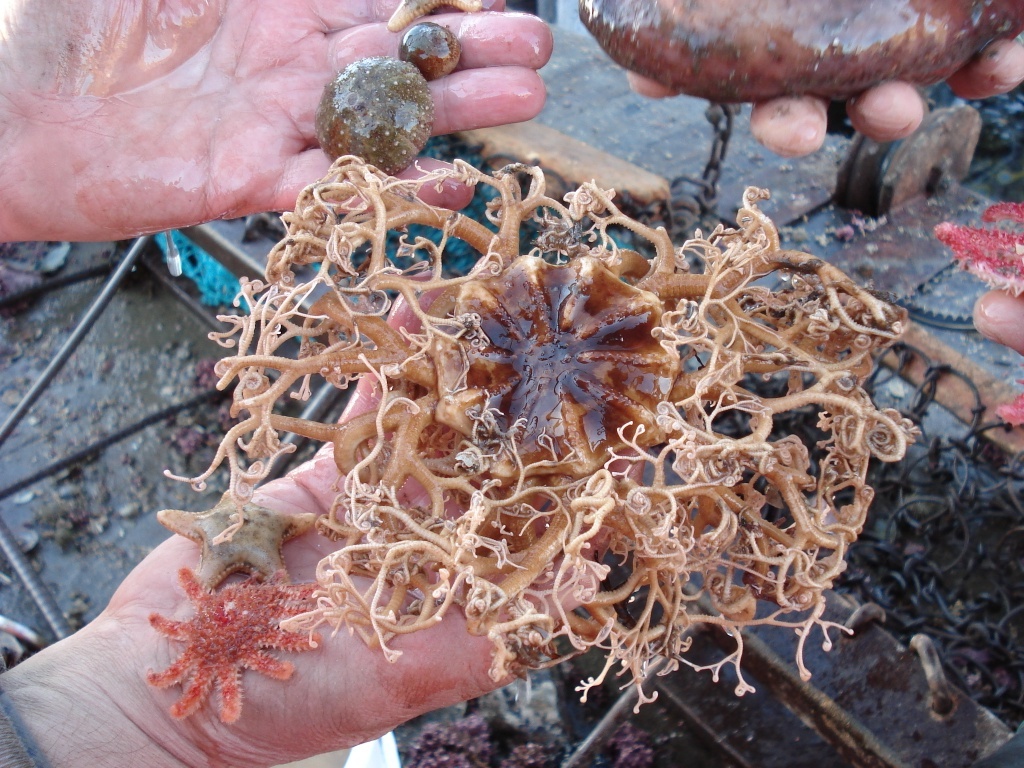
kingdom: Animalia
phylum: Echinodermata
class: Ophiuroidea
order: Euryalida
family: Gorgonocephalidae
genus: Gorgonocephalus
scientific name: Gorgonocephalus arcticus
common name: Northern basket star
